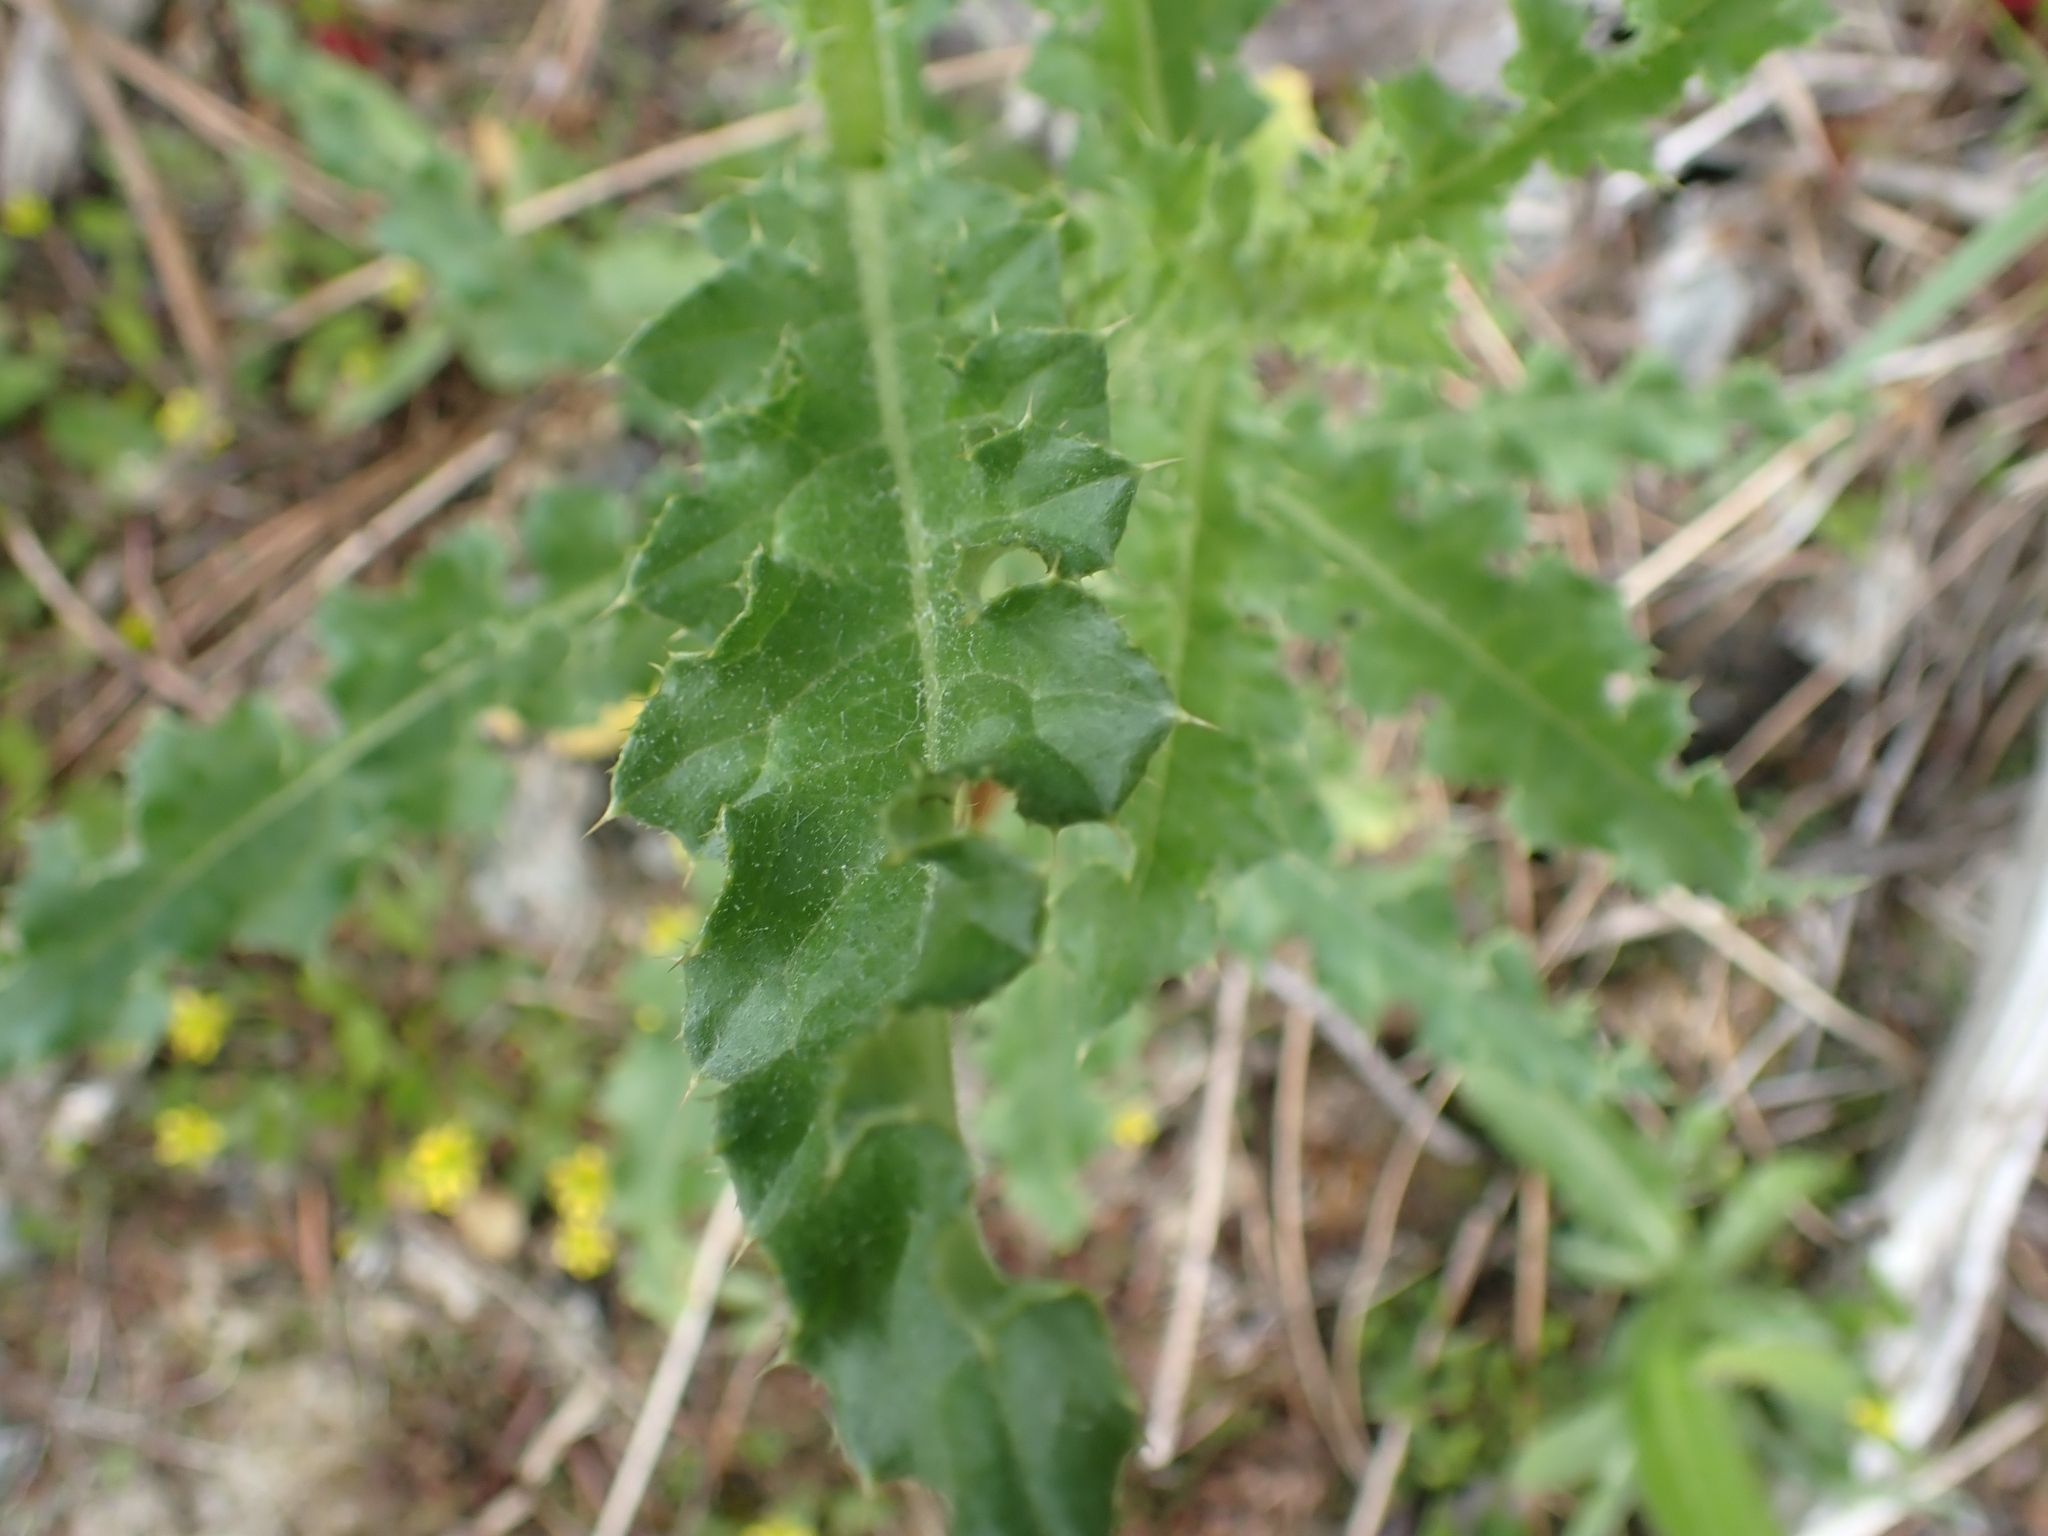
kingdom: Plantae
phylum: Tracheophyta
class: Magnoliopsida
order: Asterales
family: Asteraceae
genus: Cirsium
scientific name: Cirsium arvense
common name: Creeping thistle
